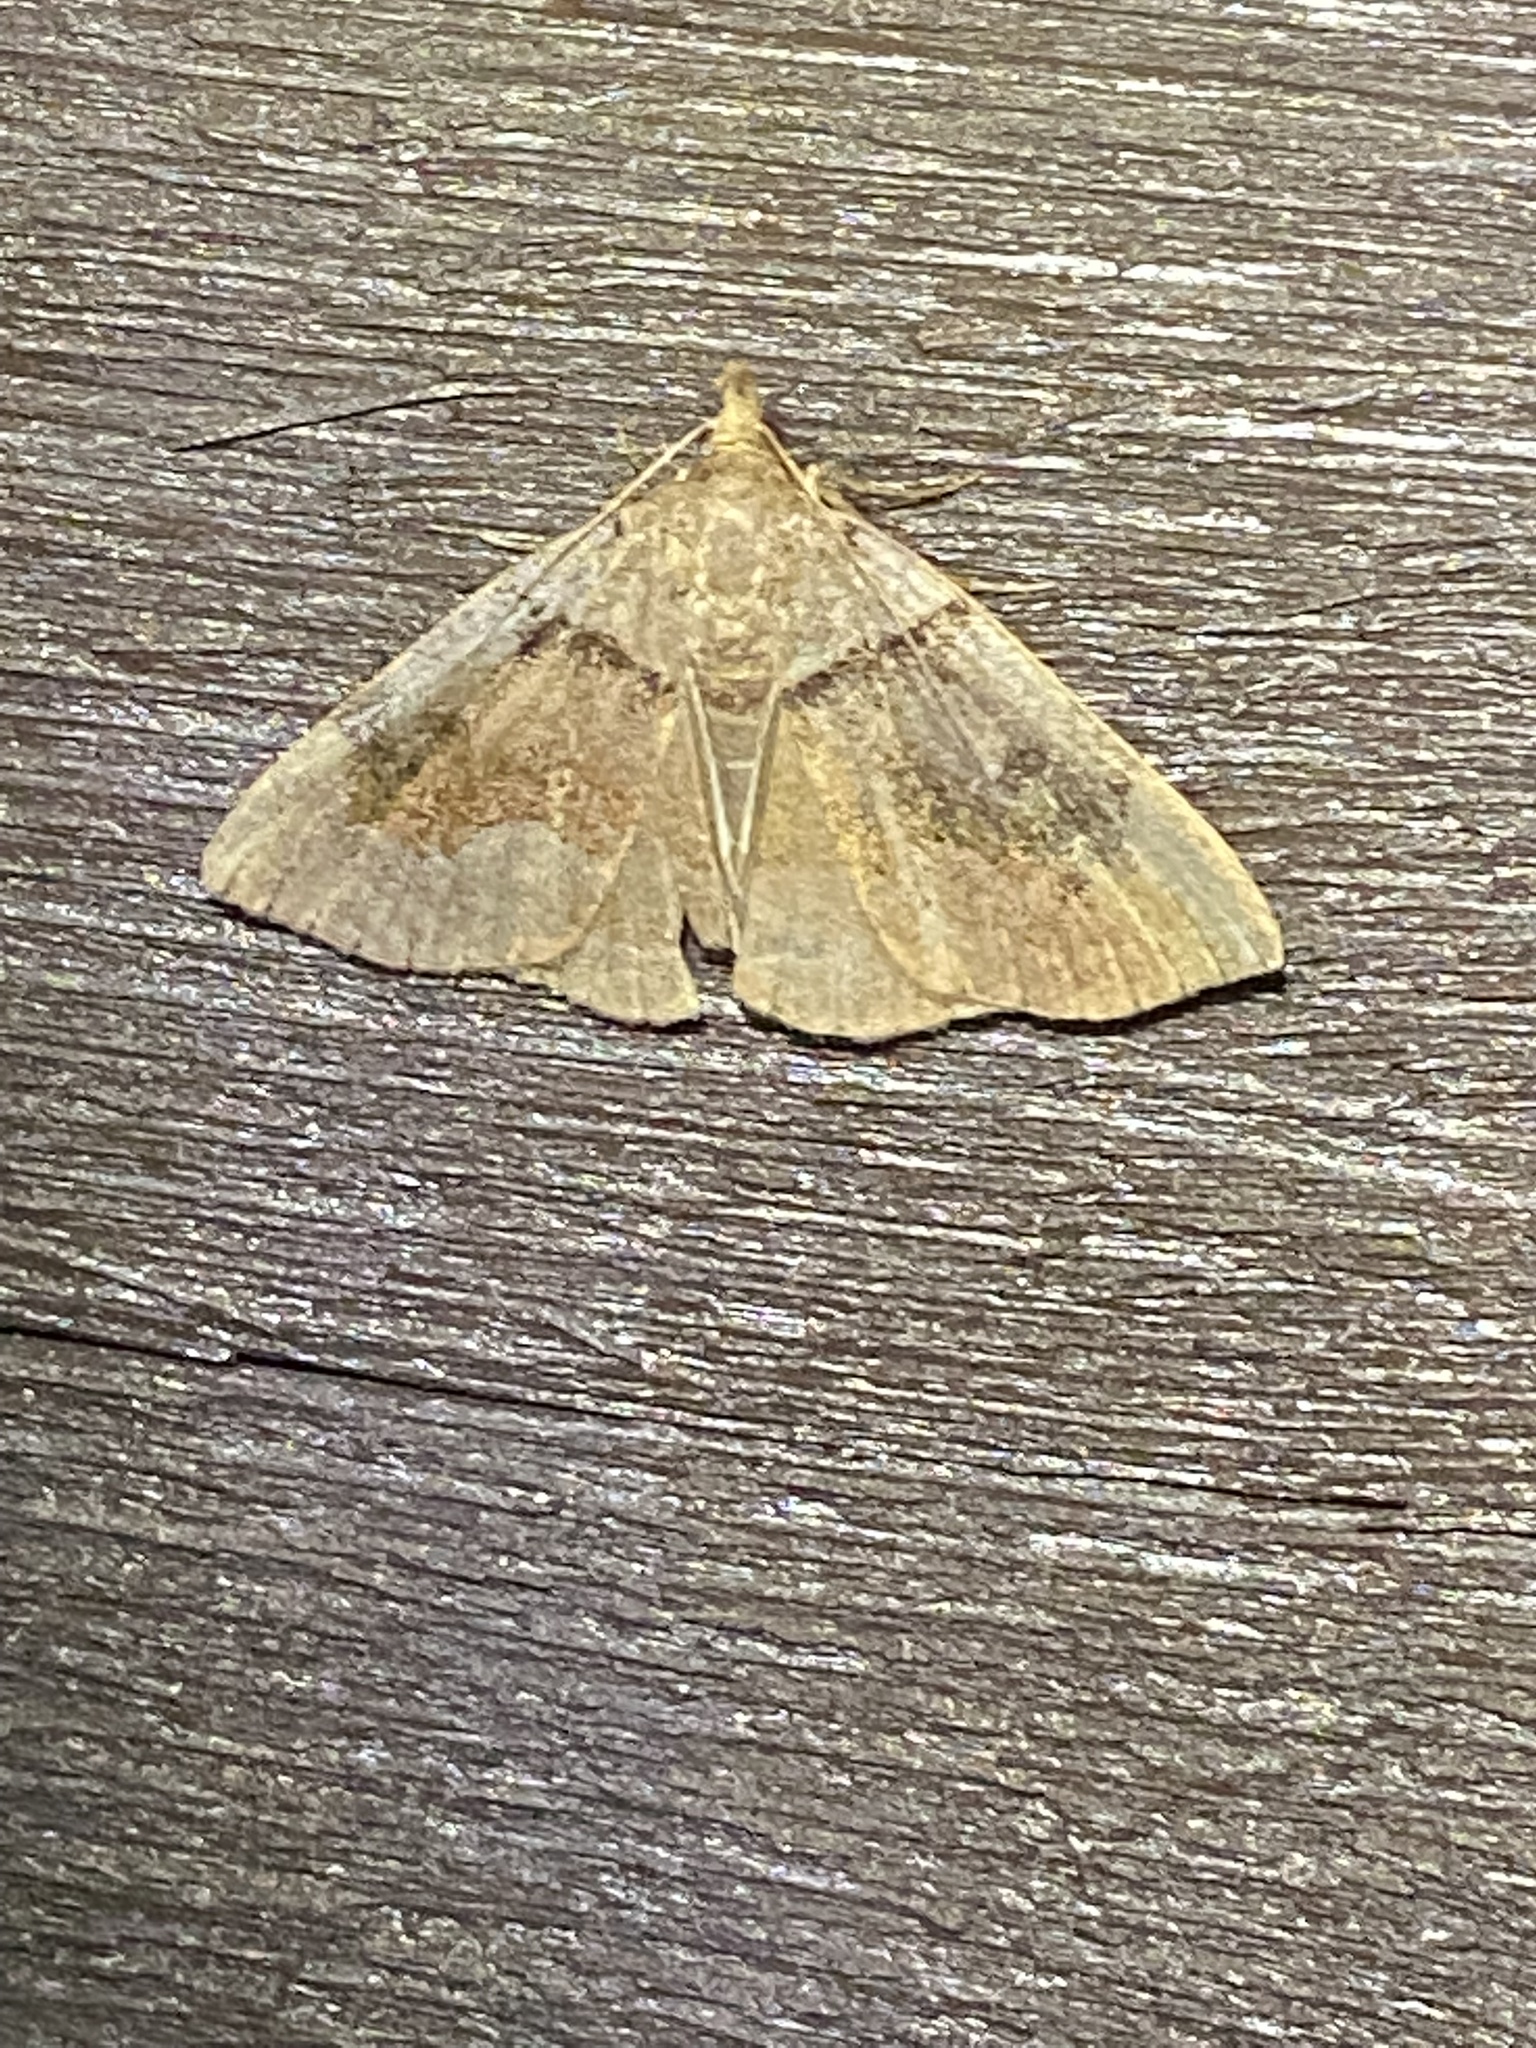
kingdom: Animalia
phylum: Arthropoda
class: Insecta
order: Lepidoptera
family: Erebidae
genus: Zanclognatha
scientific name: Zanclognatha laevigata
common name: Variable fan-foot
